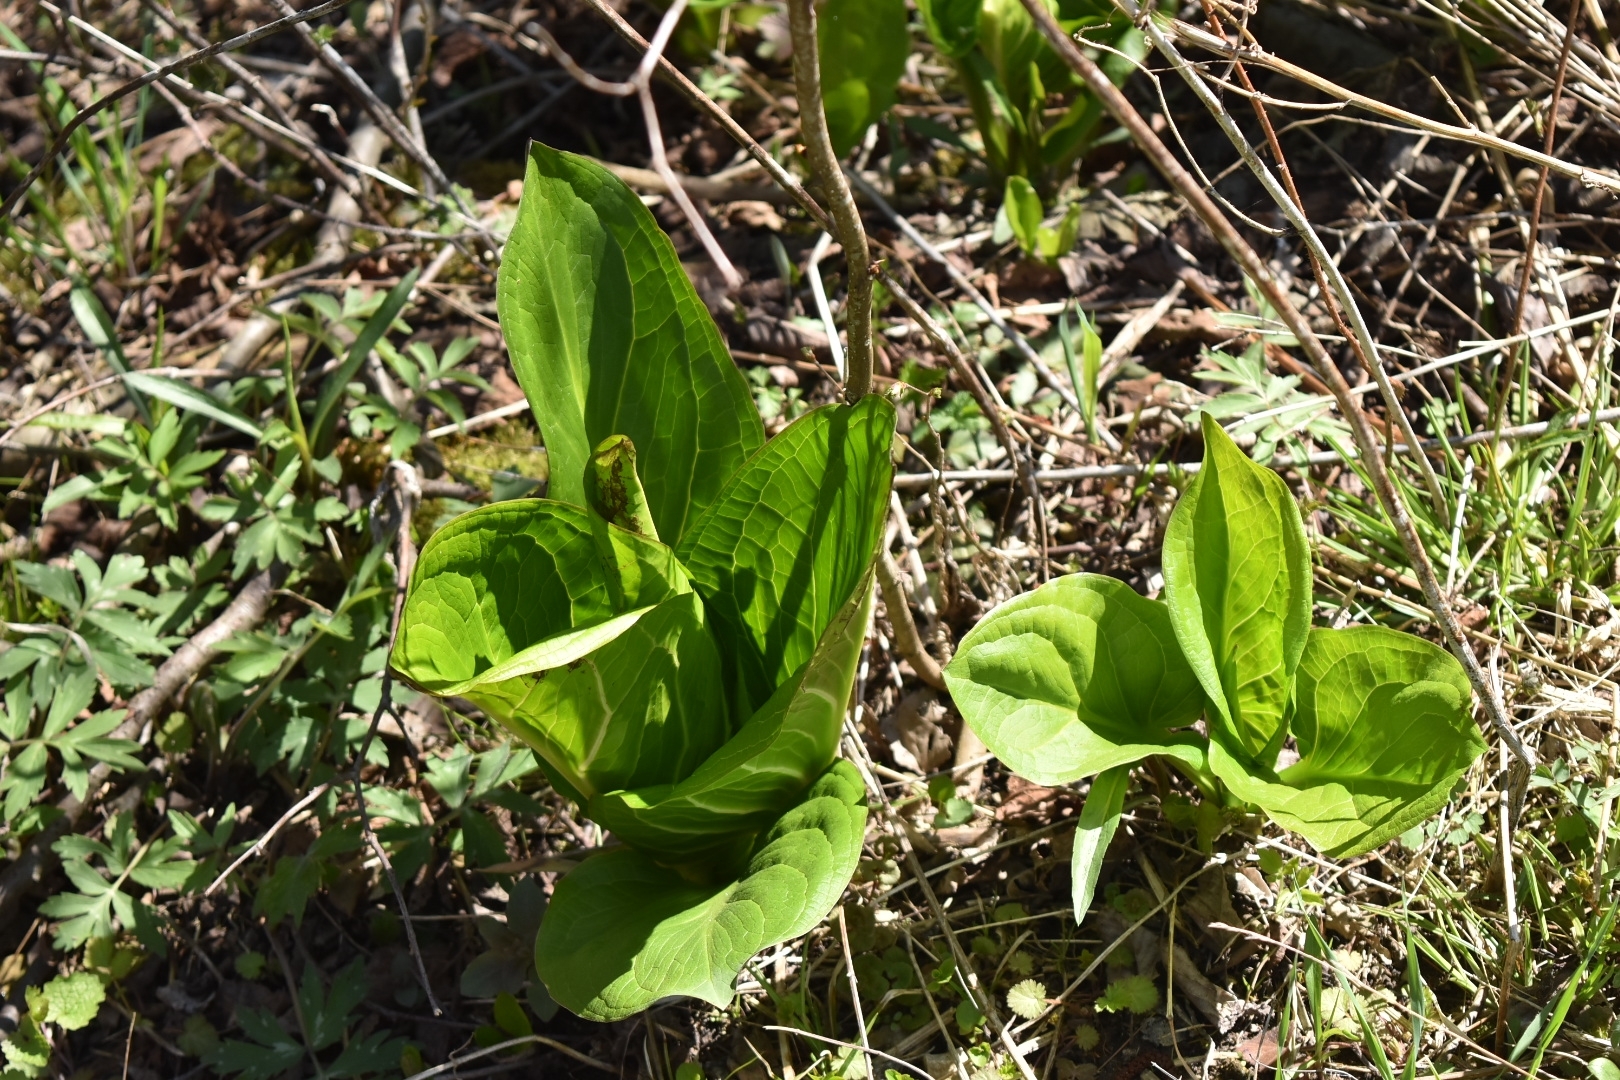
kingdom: Plantae
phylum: Tracheophyta
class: Liliopsida
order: Alismatales
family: Araceae
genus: Symplocarpus
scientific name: Symplocarpus foetidus
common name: Eastern skunk cabbage
